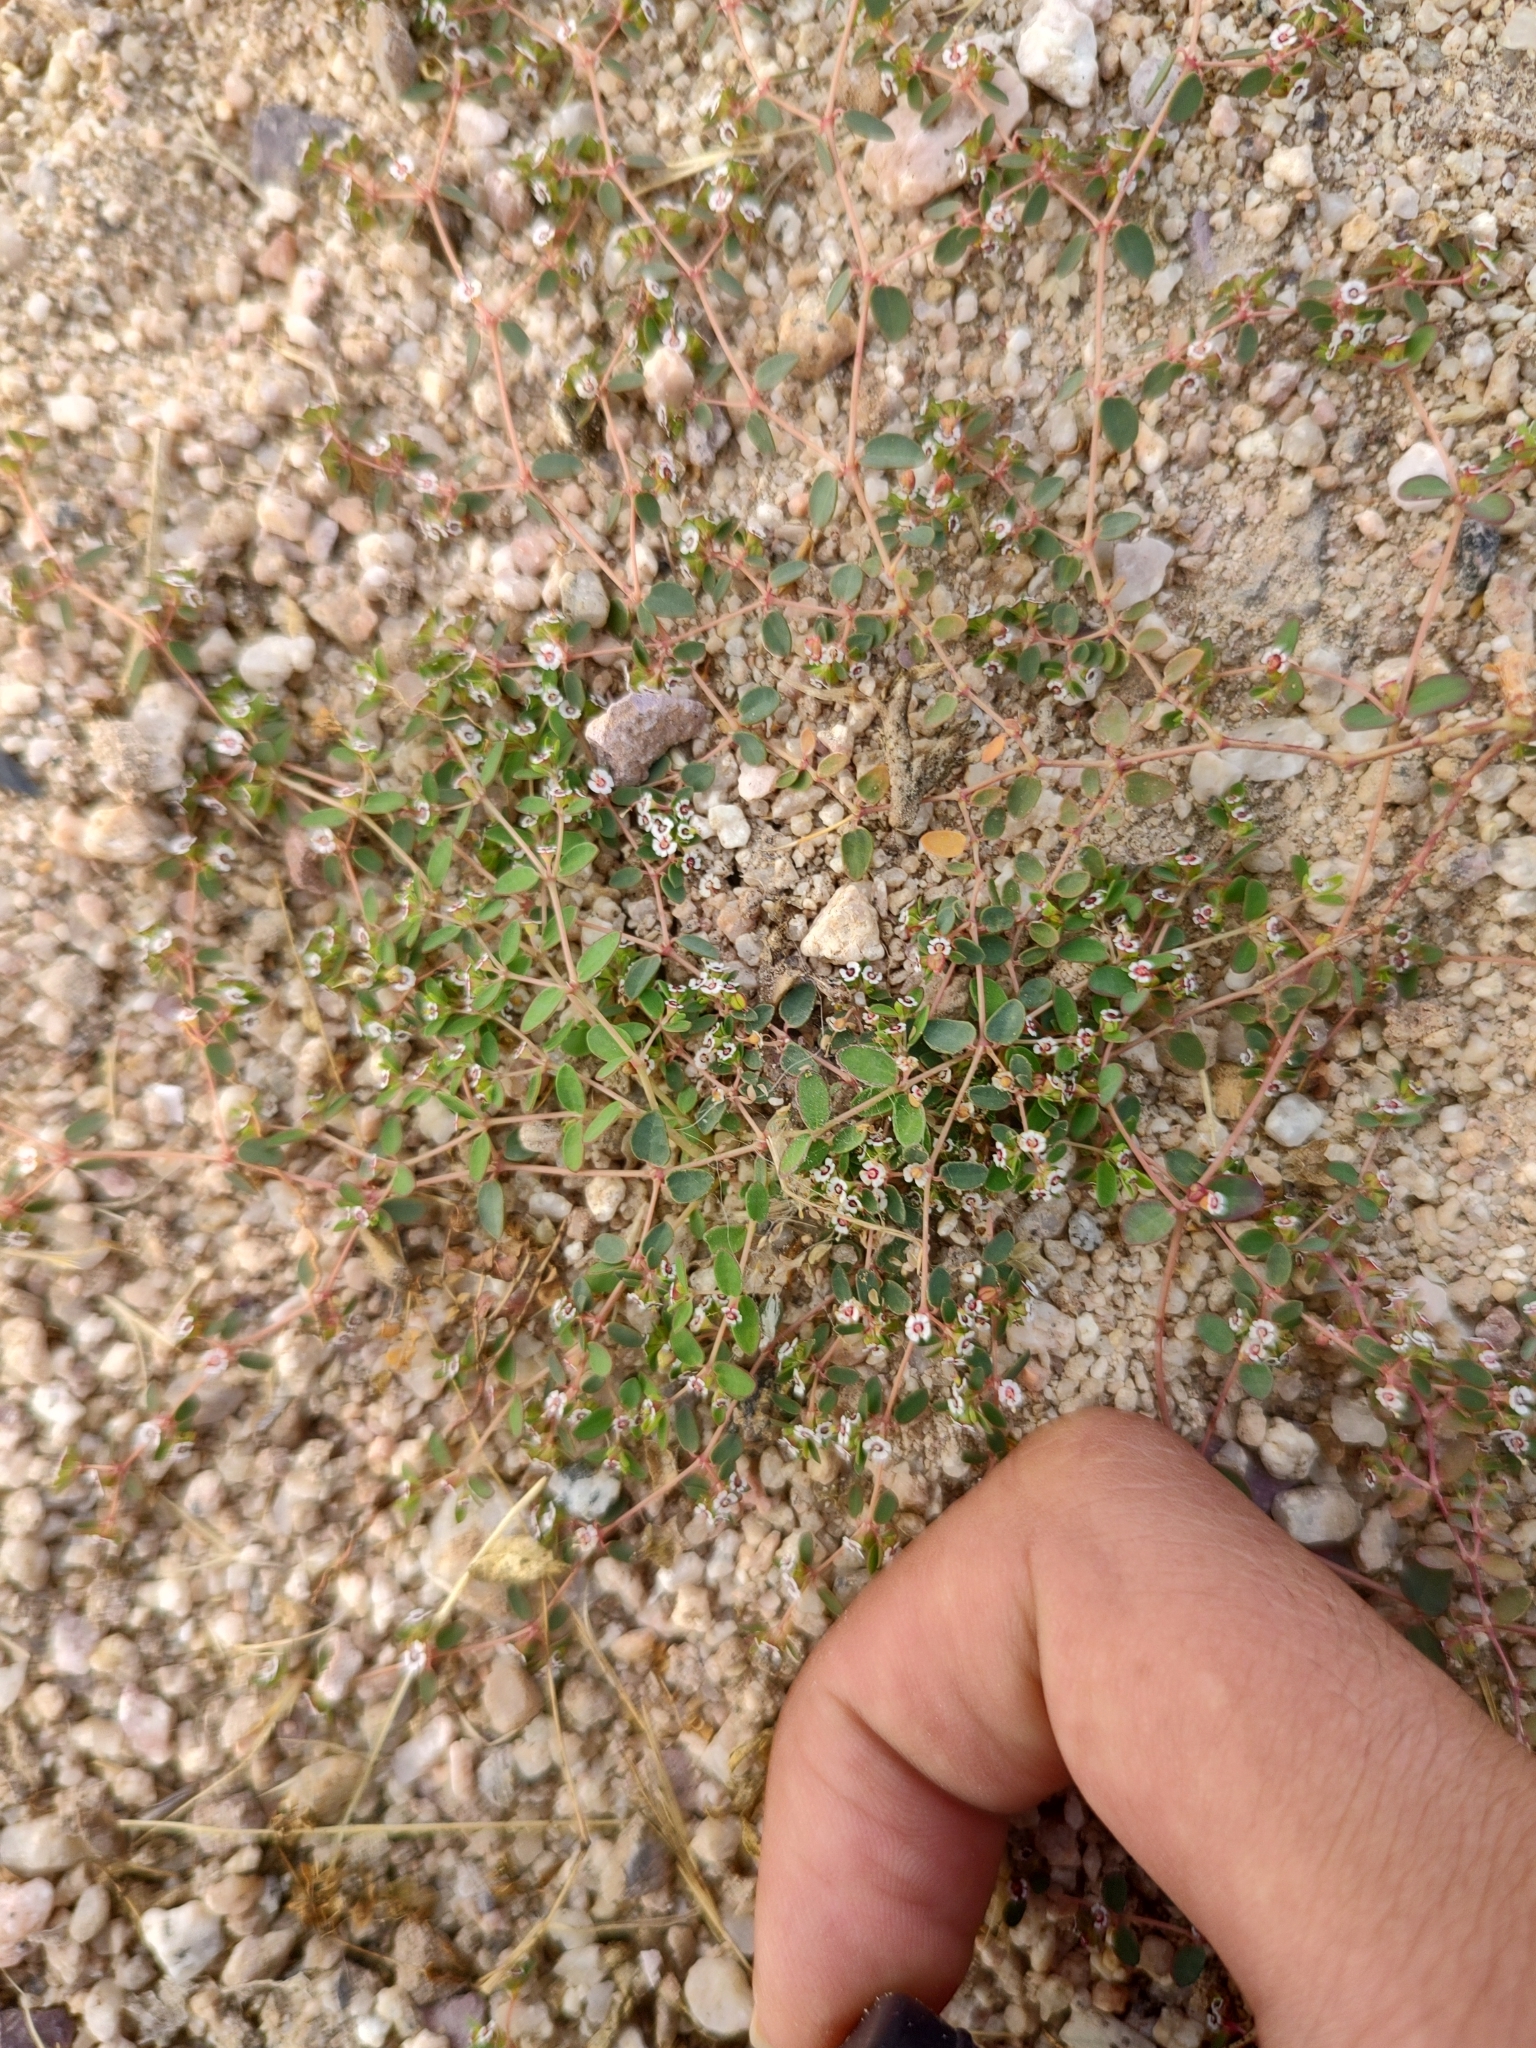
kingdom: Plantae
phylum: Tracheophyta
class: Magnoliopsida
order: Malpighiales
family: Euphorbiaceae
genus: Euphorbia
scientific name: Euphorbia polycarpa
